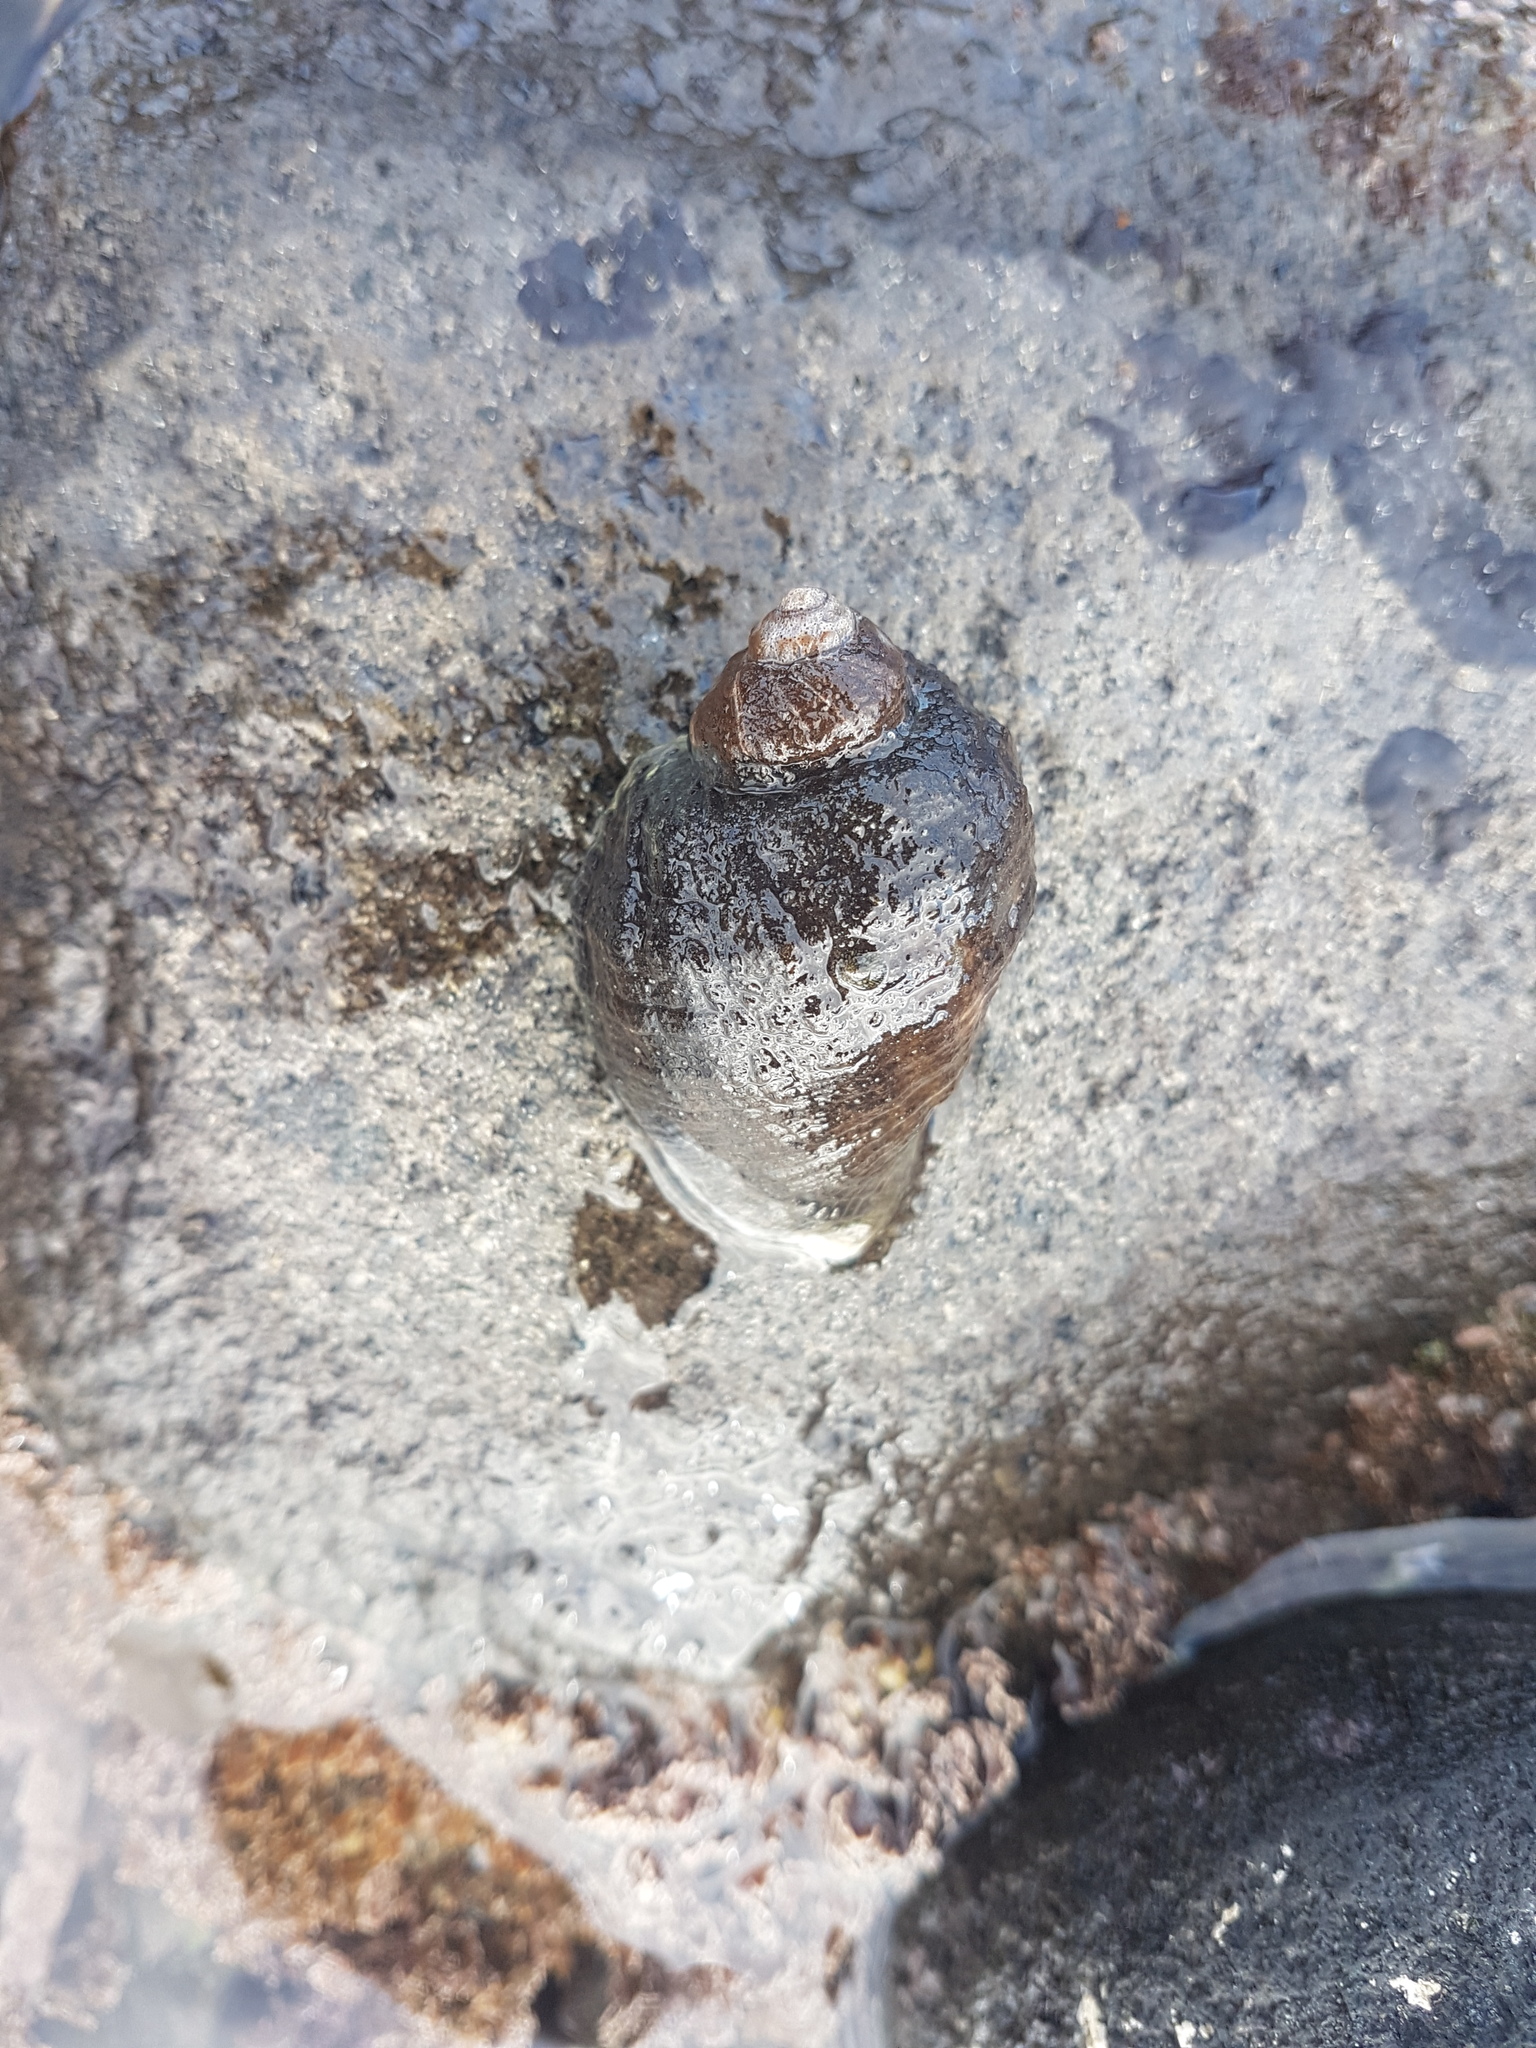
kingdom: Animalia
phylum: Mollusca
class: Gastropoda
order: Neogastropoda
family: Muricidae
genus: Haustrum
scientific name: Haustrum haustorium
